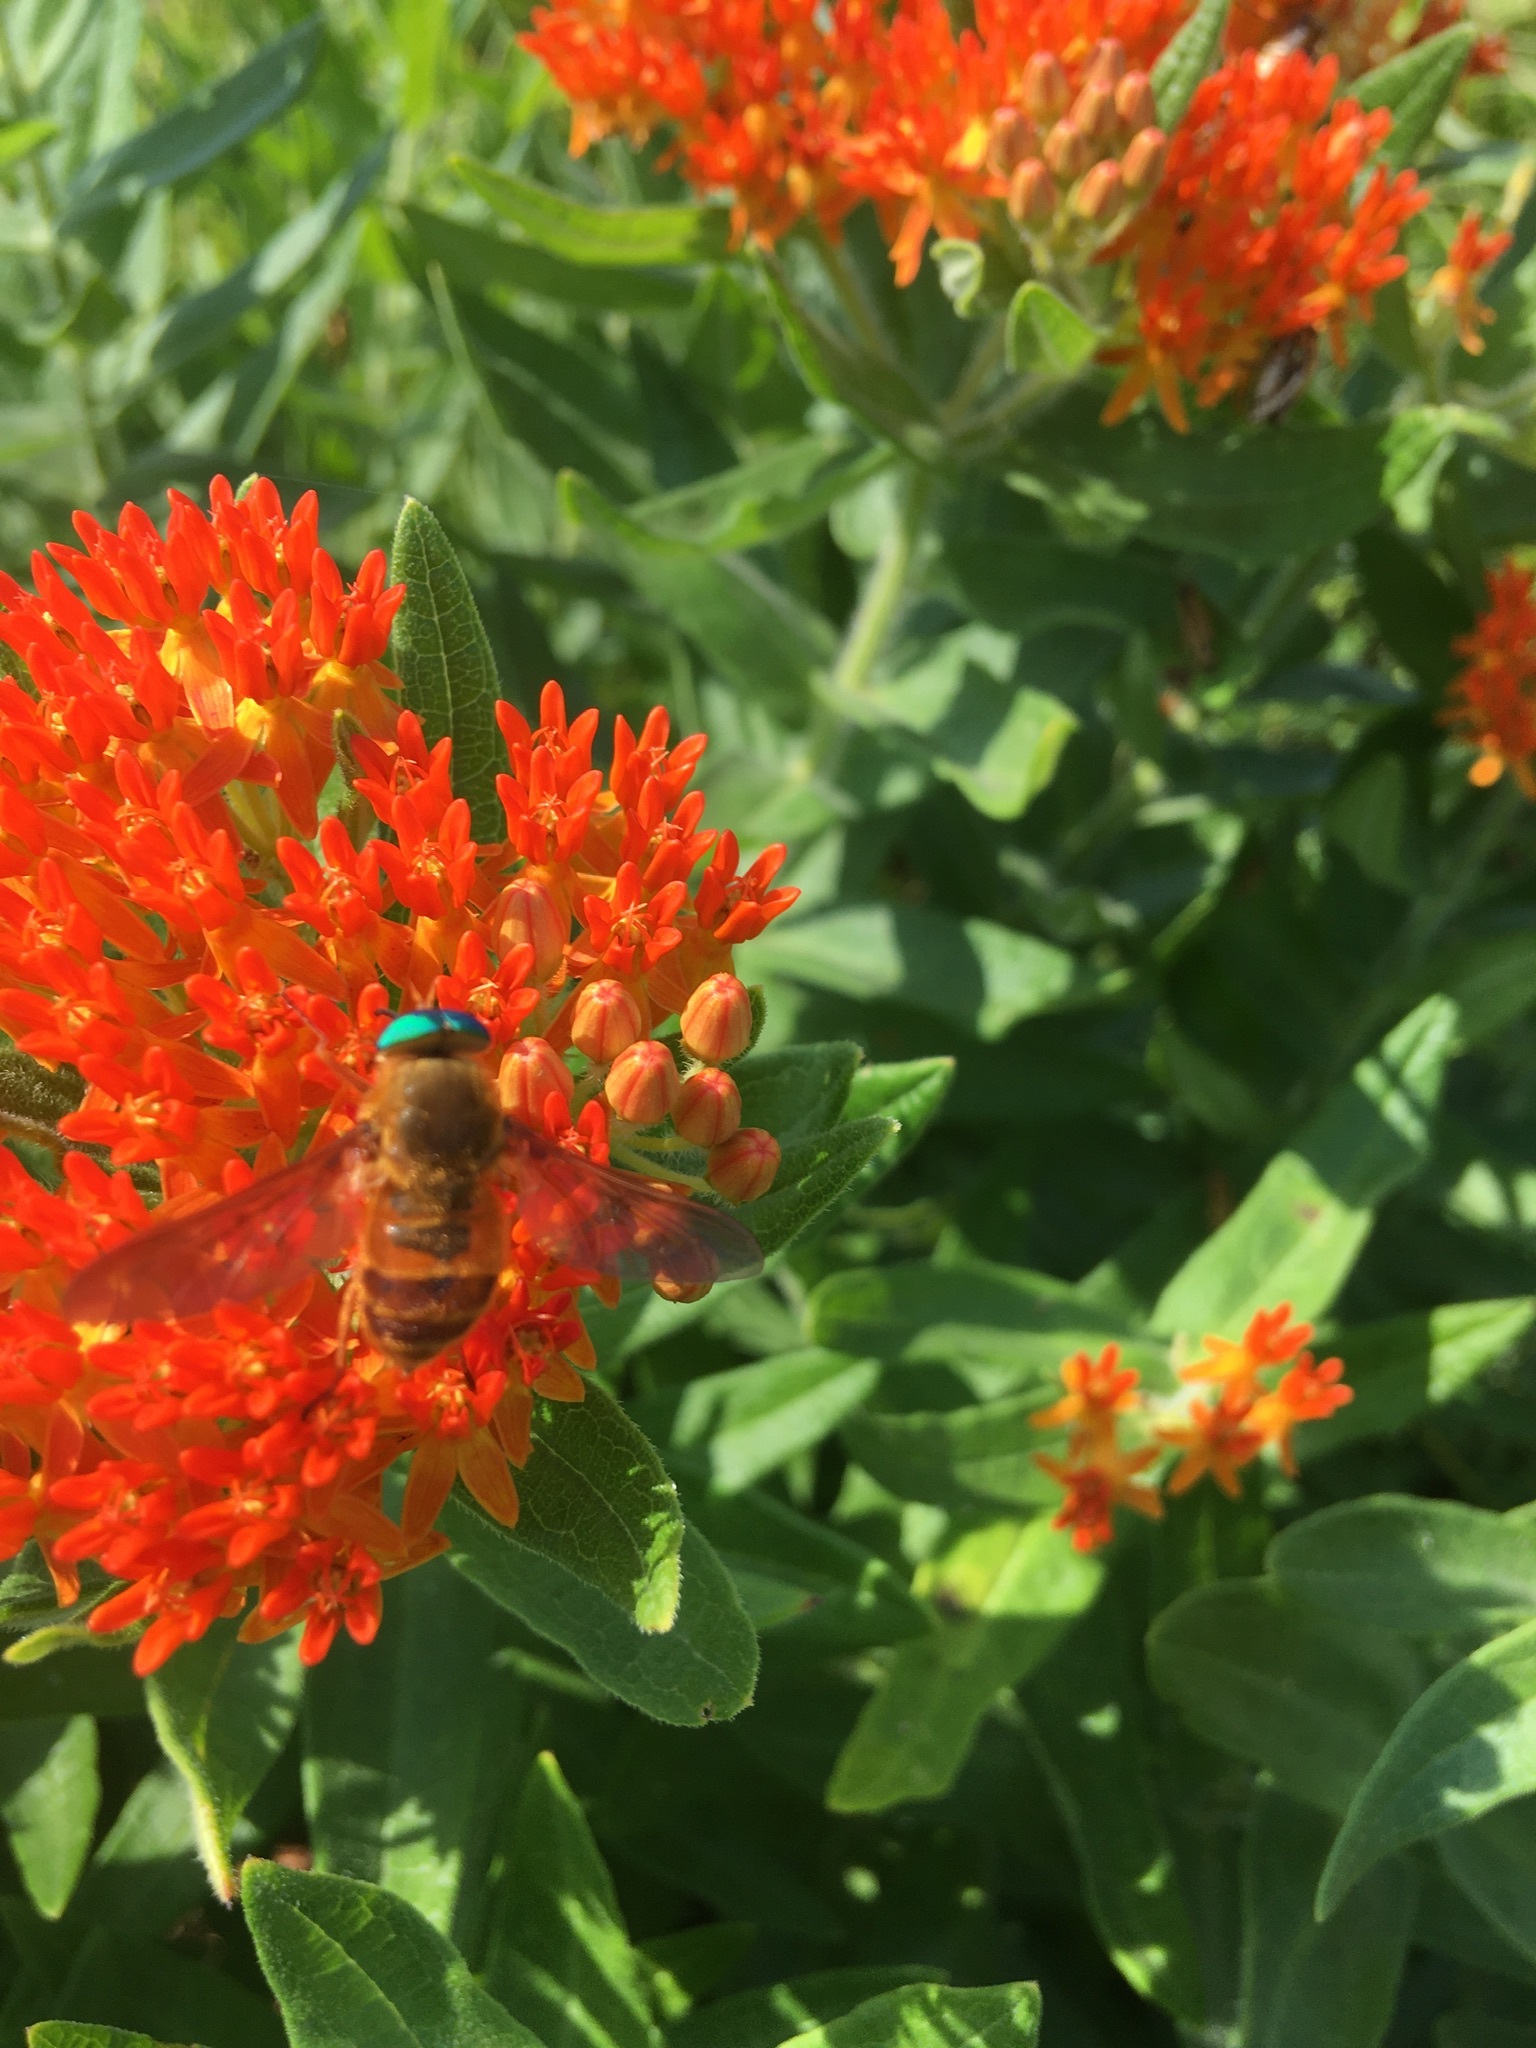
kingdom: Animalia
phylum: Arthropoda
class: Insecta
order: Diptera
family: Tabanidae
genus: Esenbeckia
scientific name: Esenbeckia incisuralis
